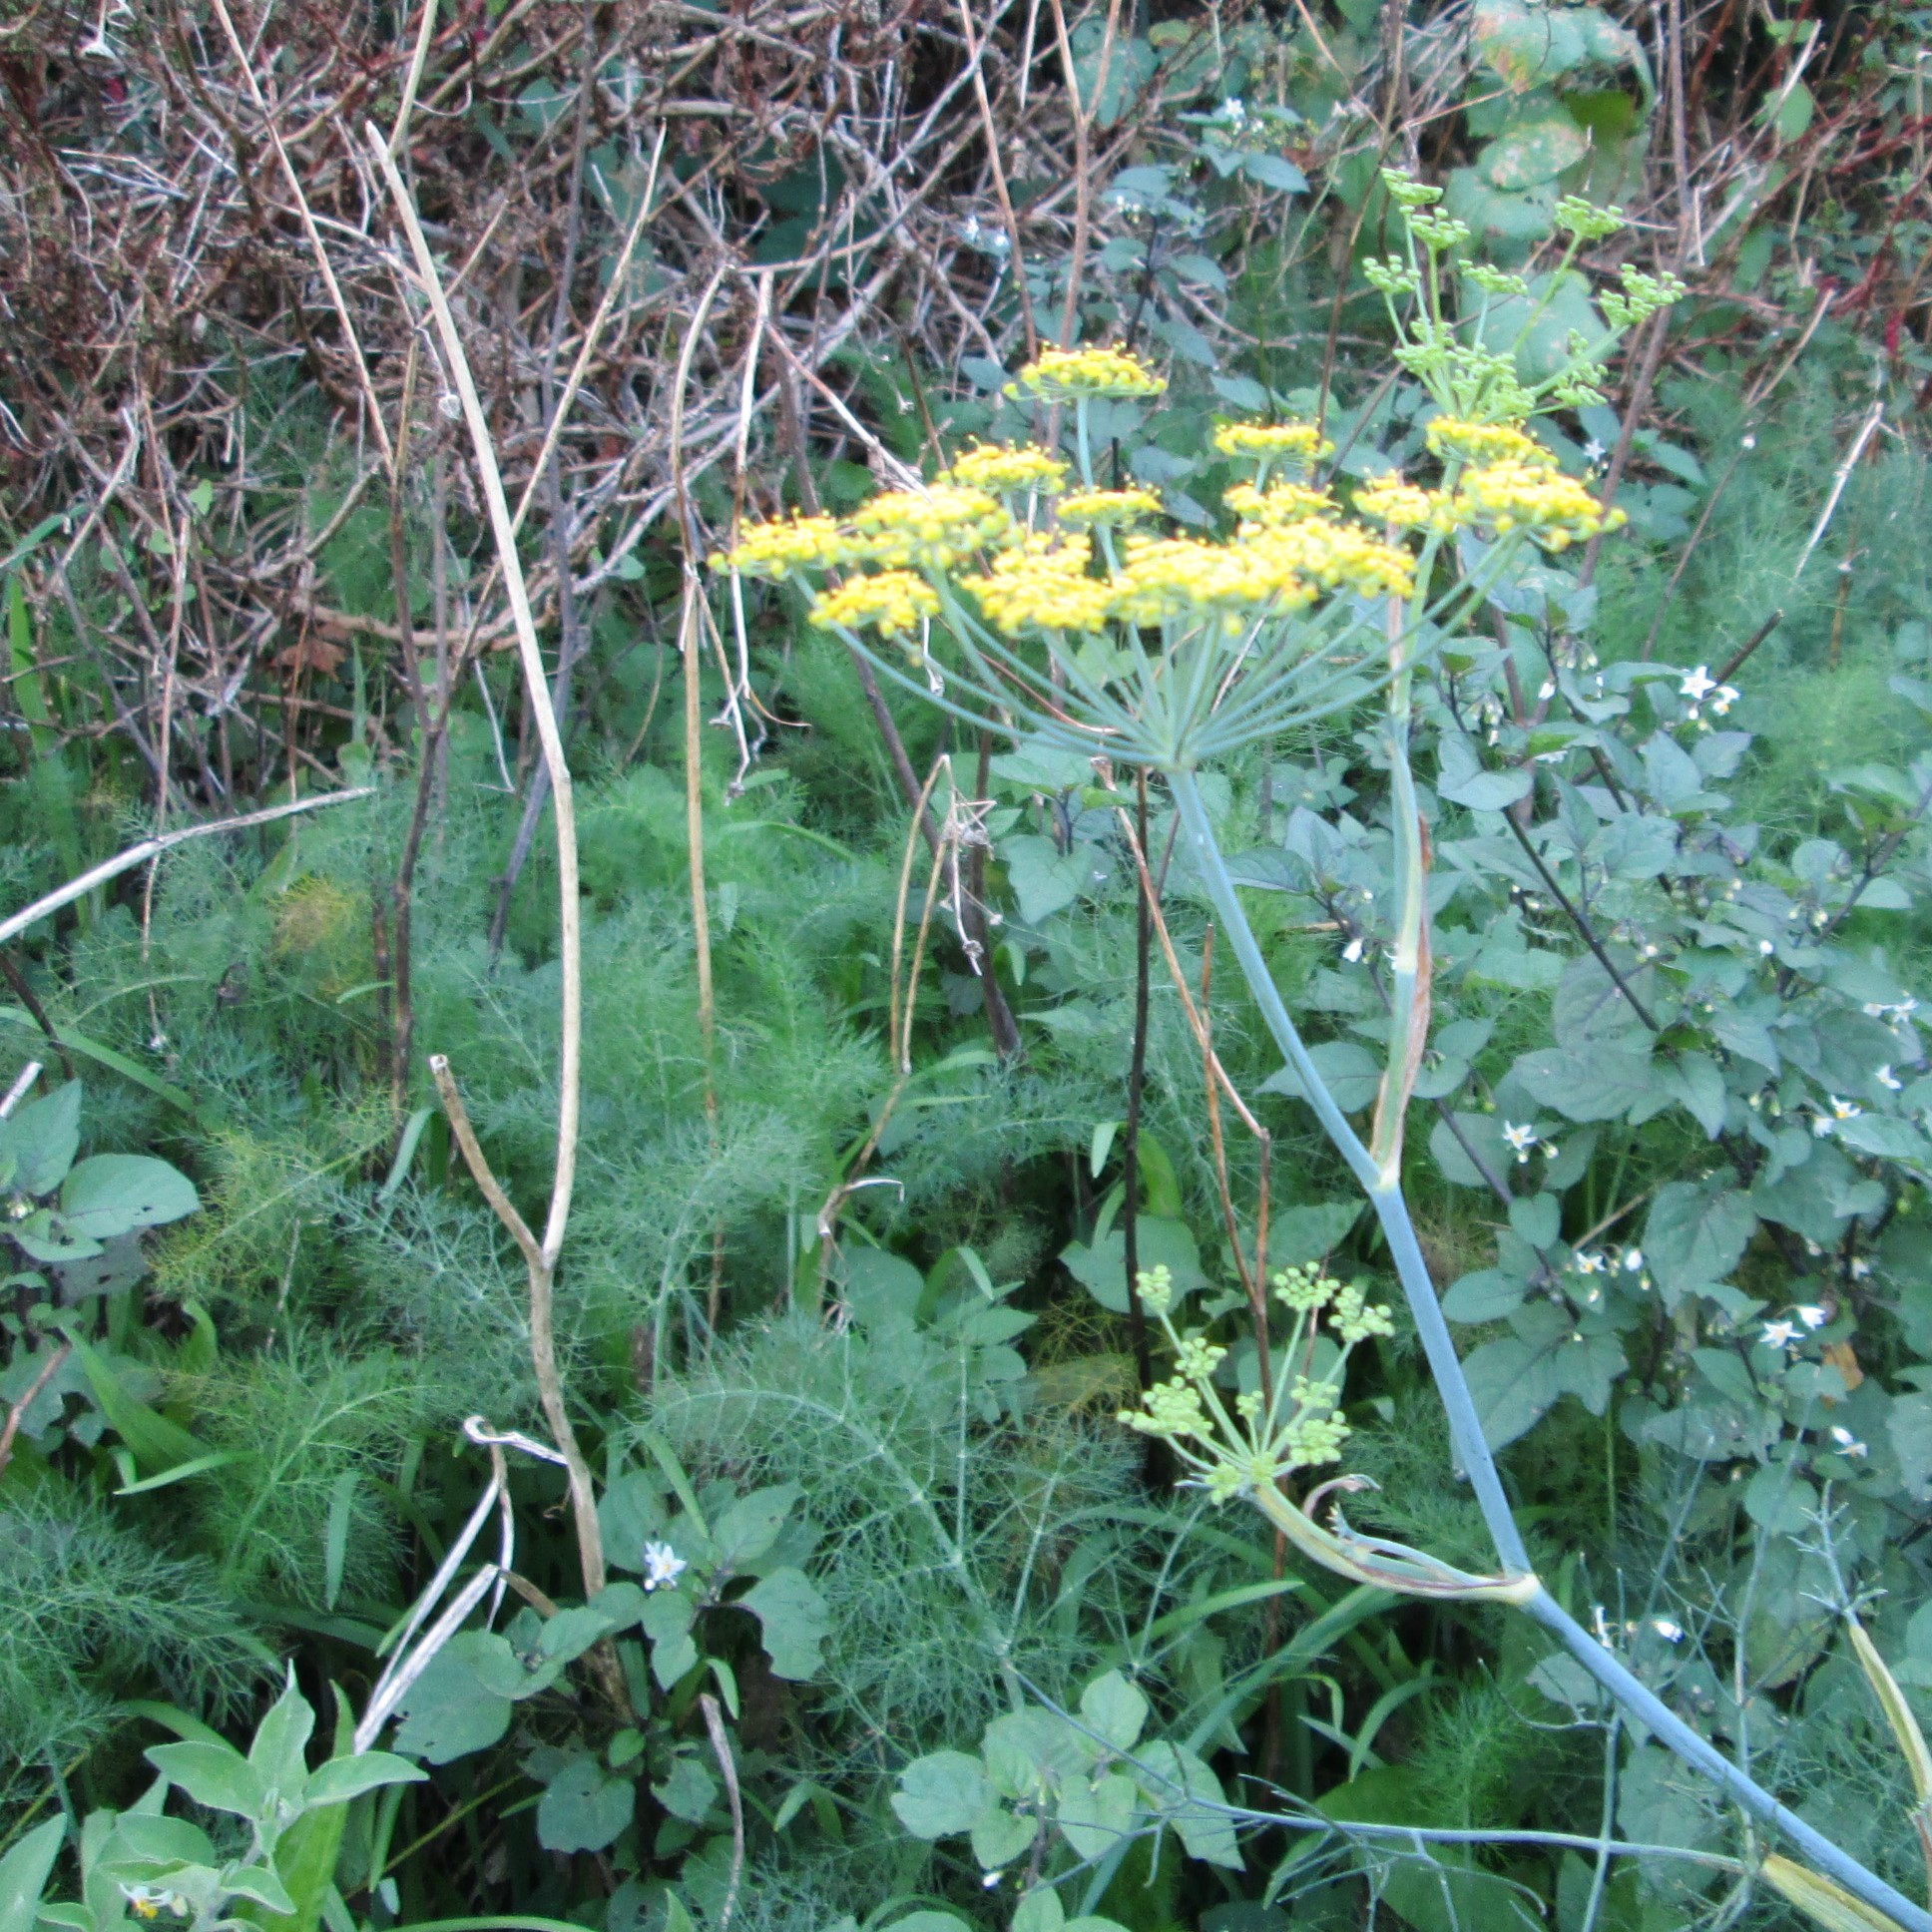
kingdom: Plantae
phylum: Tracheophyta
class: Magnoliopsida
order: Apiales
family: Apiaceae
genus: Foeniculum
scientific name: Foeniculum vulgare
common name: Fennel
